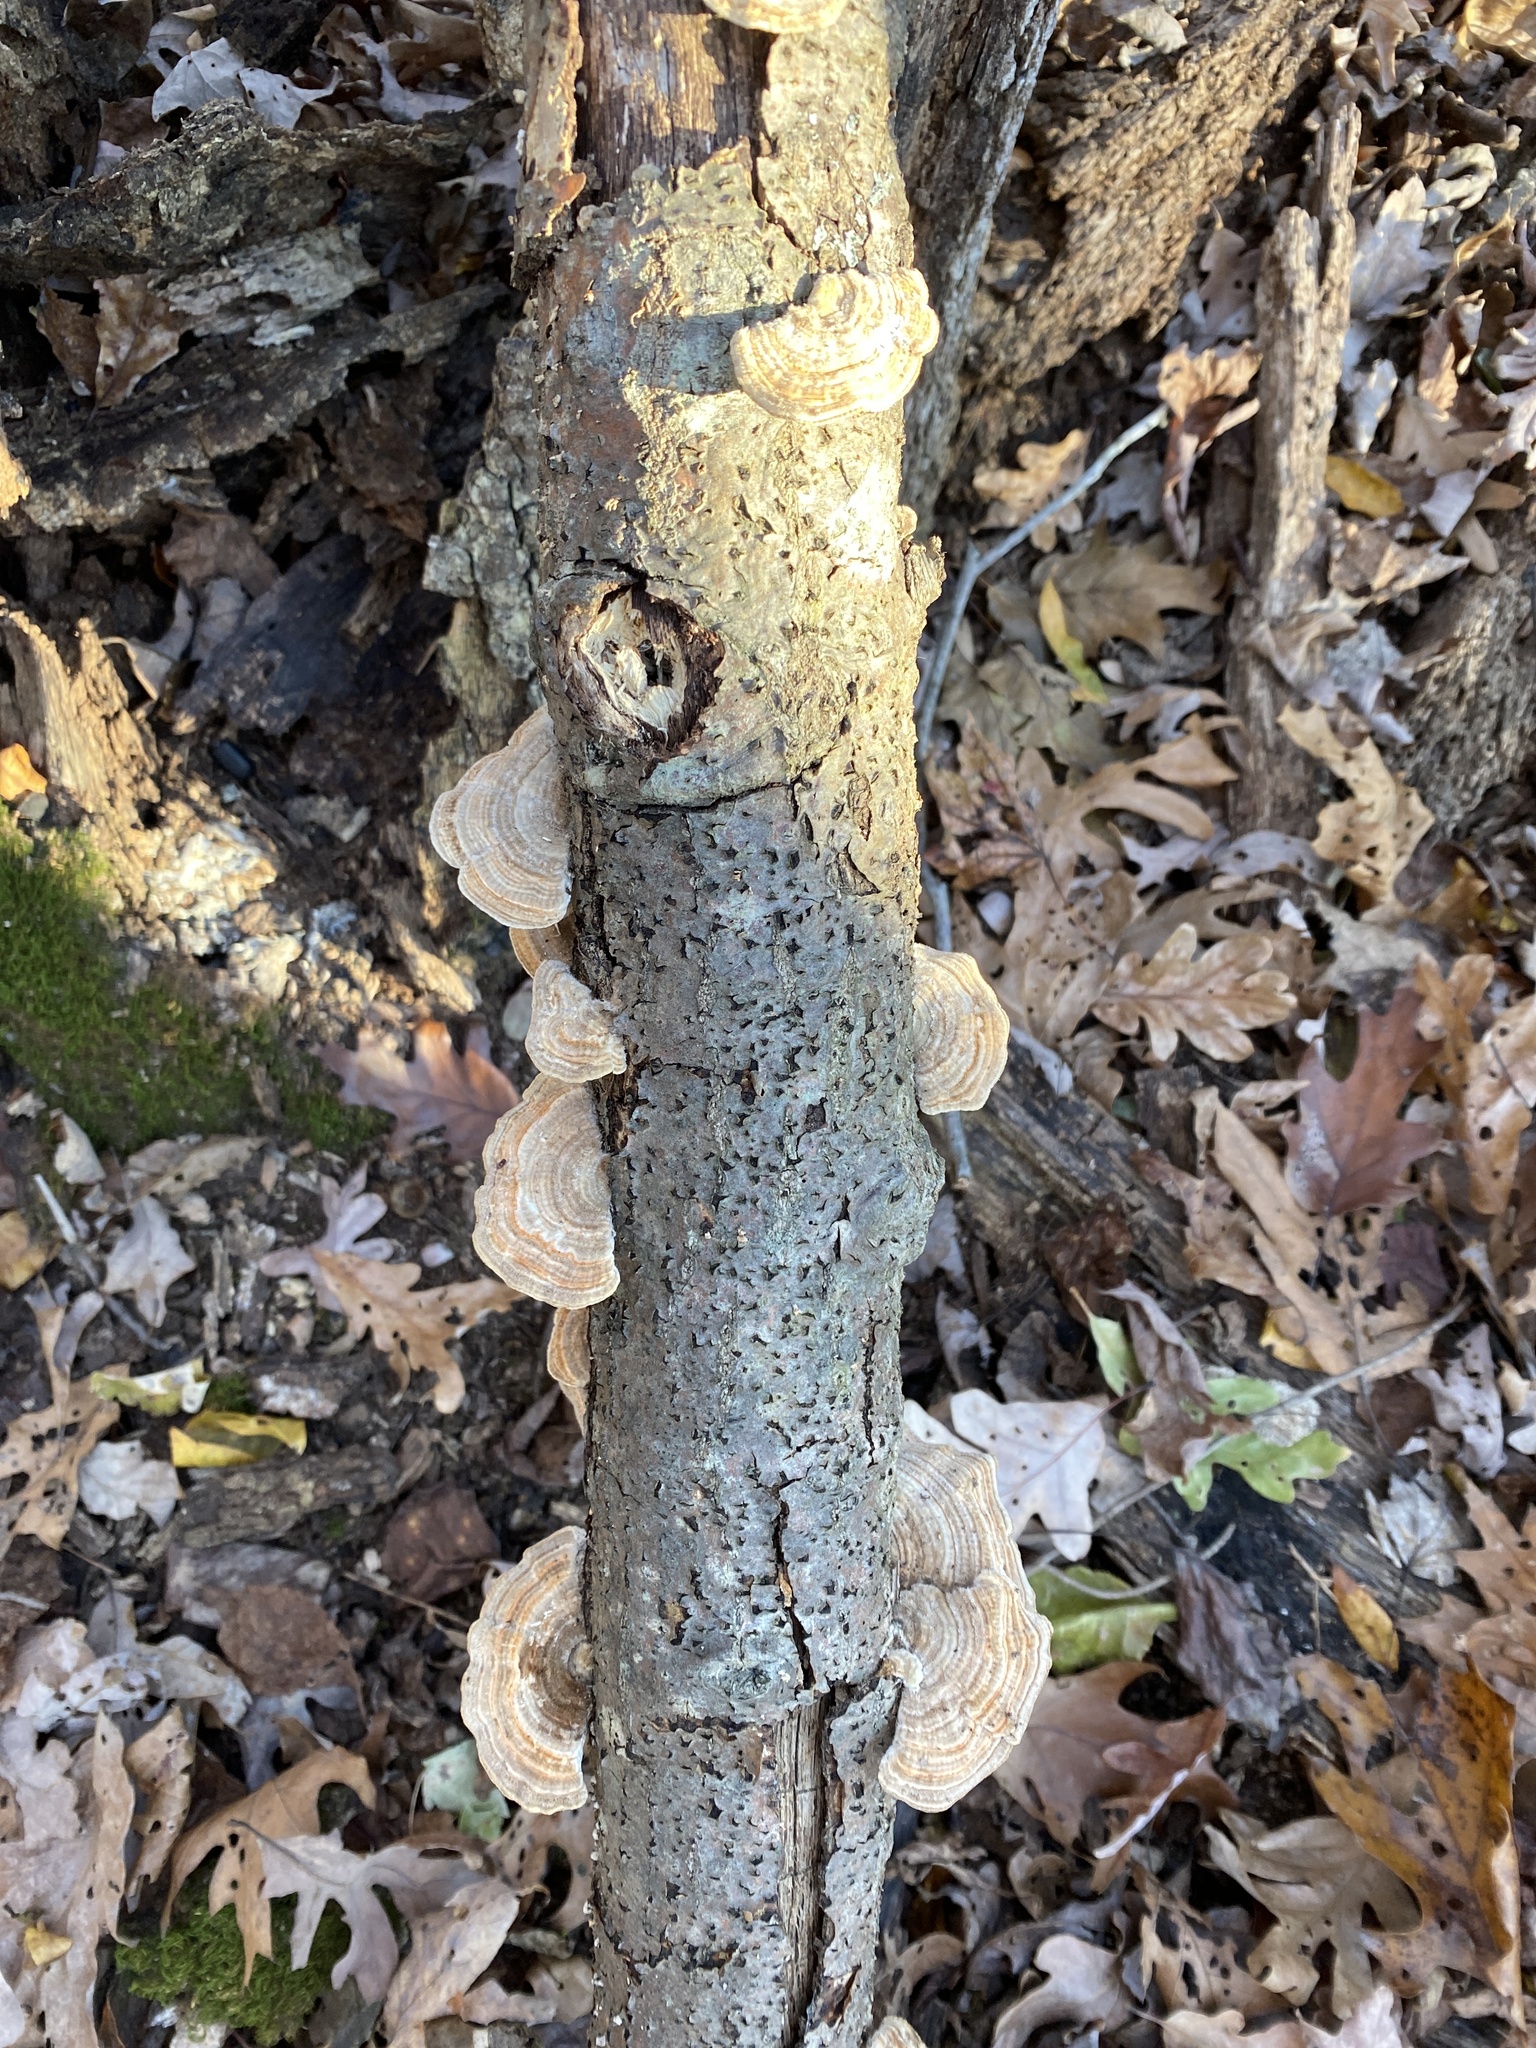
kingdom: Fungi
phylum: Basidiomycota
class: Agaricomycetes
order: Polyporales
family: Polyporaceae
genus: Lenzites
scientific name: Lenzites betulinus
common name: Birch mazegill
